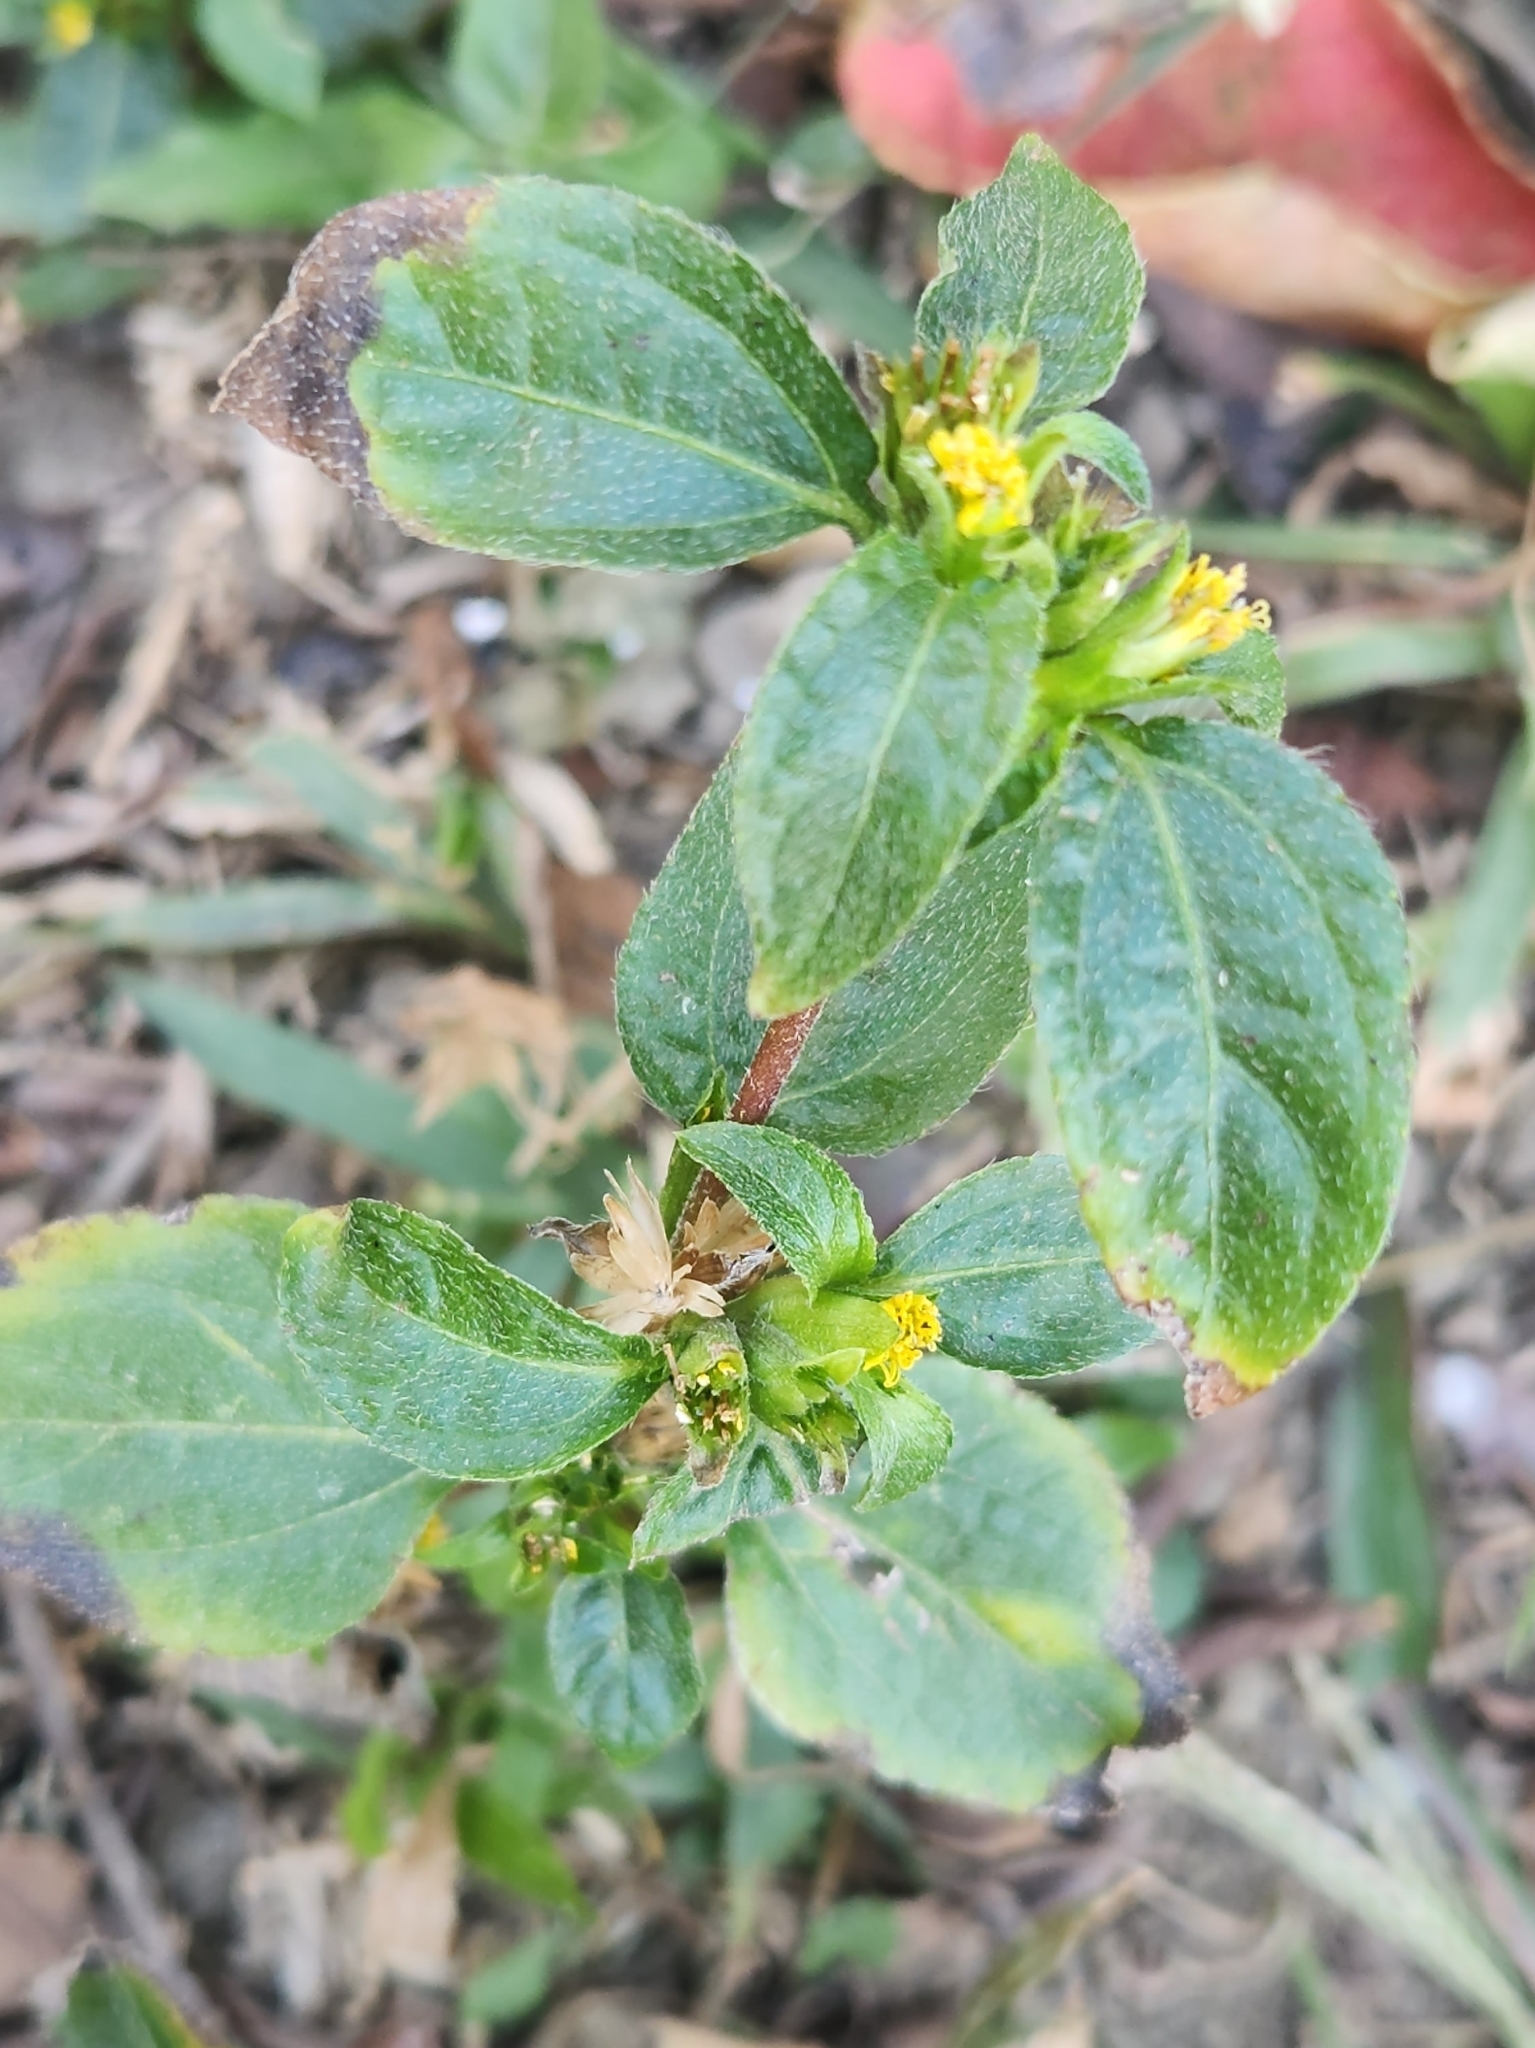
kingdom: Plantae
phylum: Tracheophyta
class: Magnoliopsida
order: Asterales
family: Asteraceae
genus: Synedrella
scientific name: Synedrella nodiflora
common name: Nodeweed
